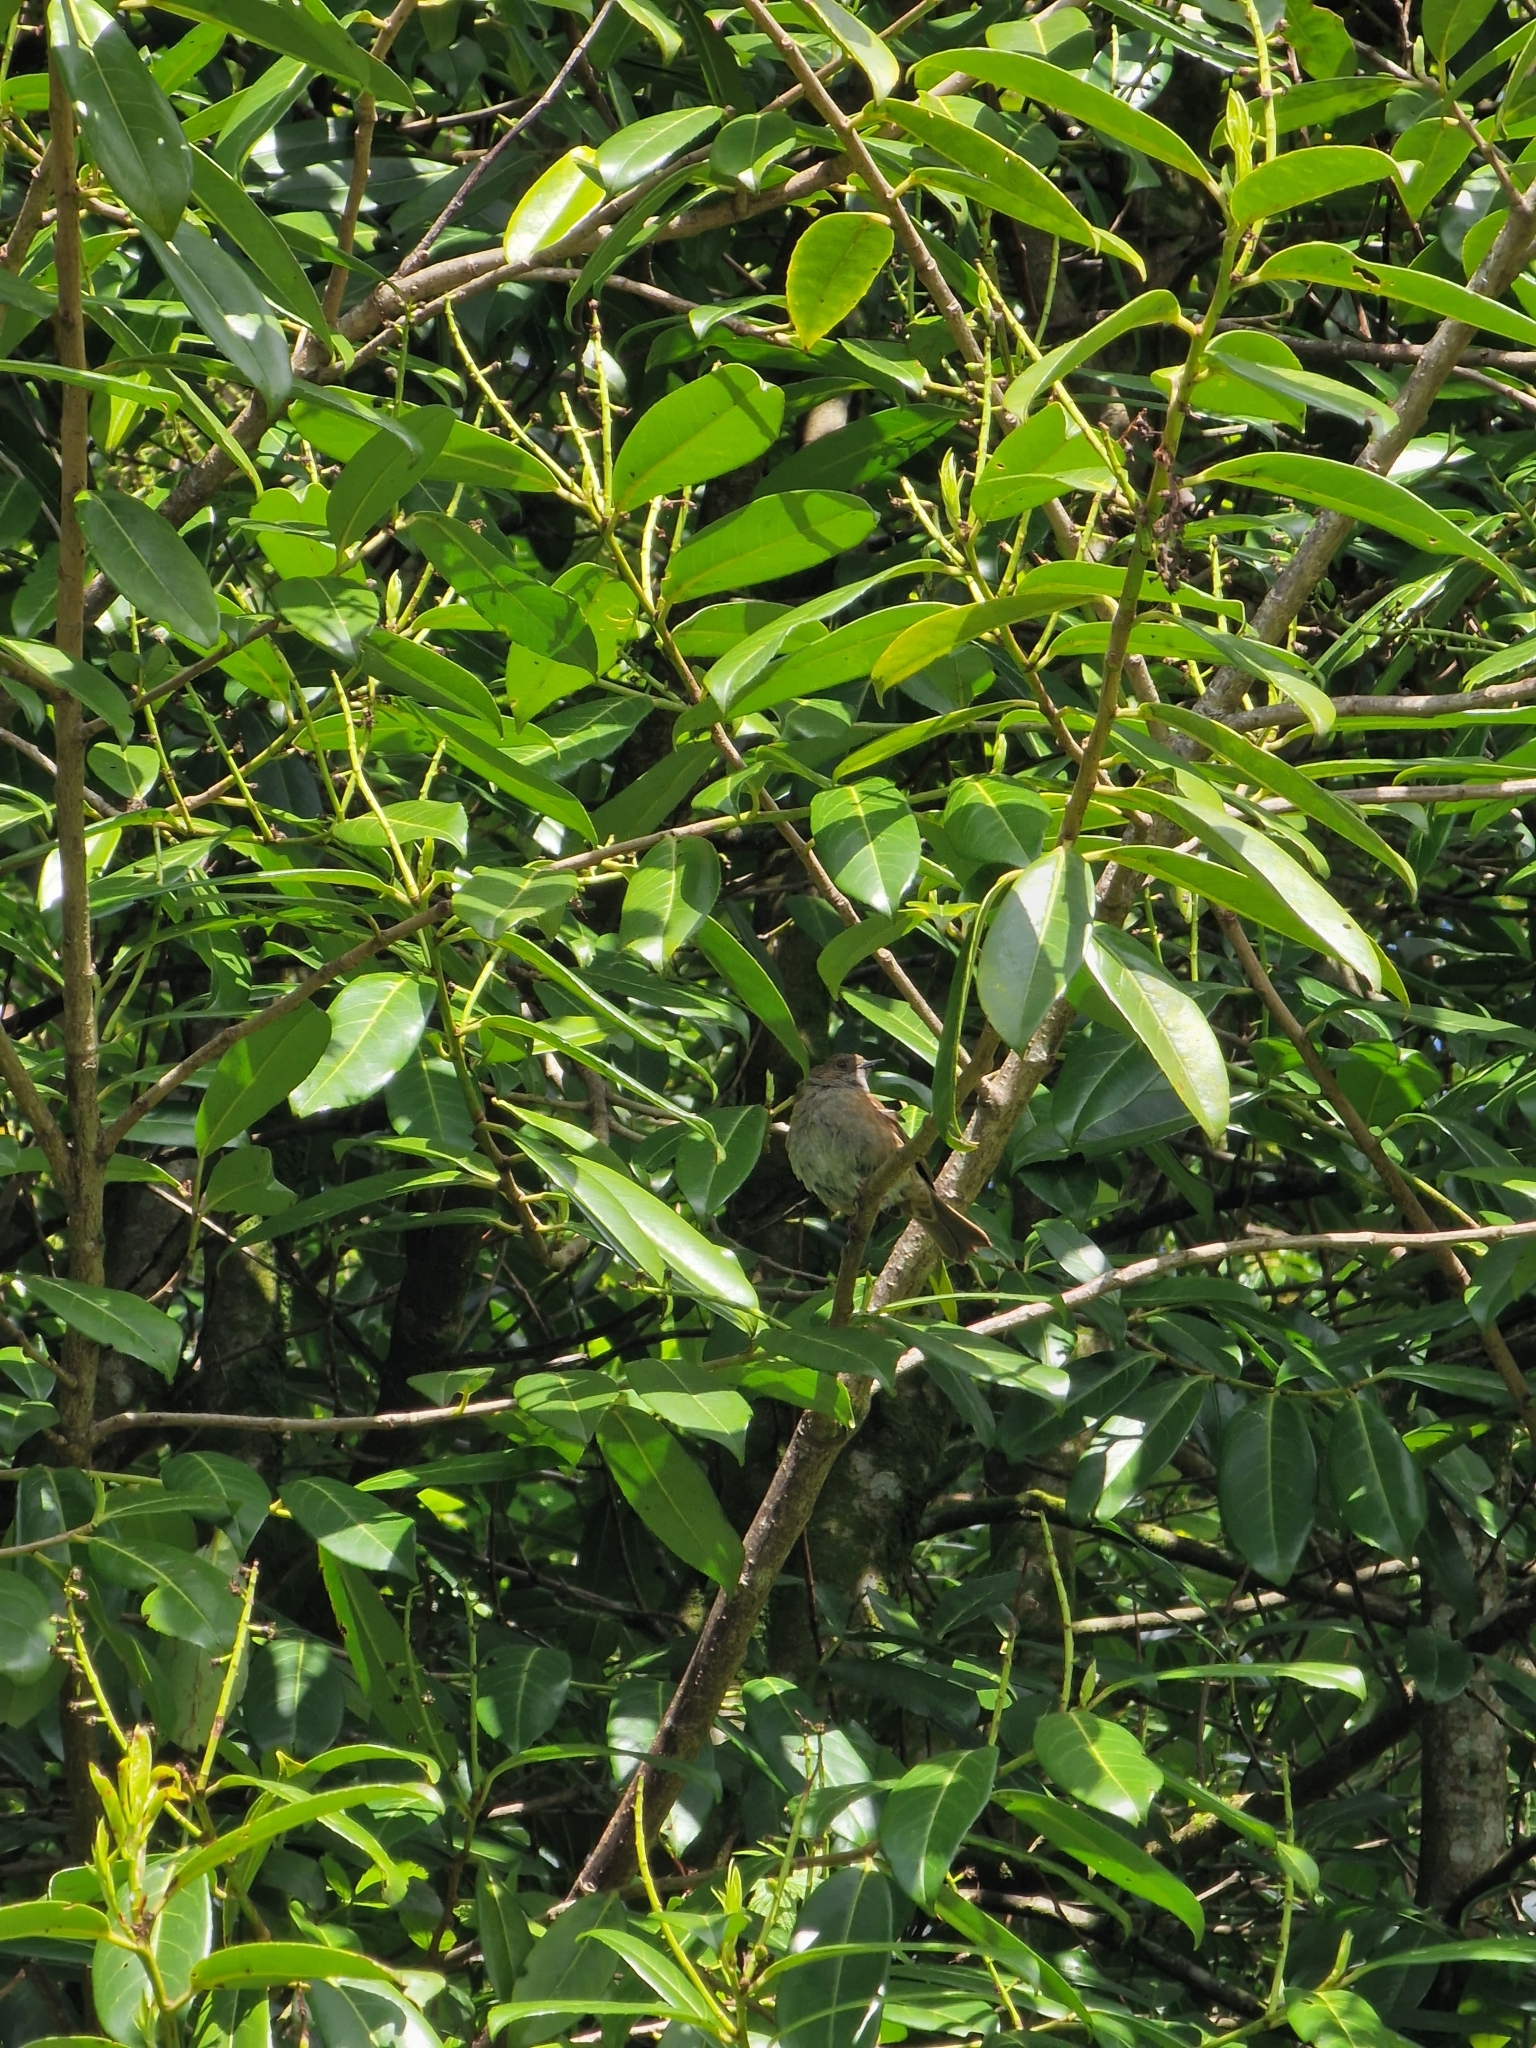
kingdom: Animalia
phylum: Chordata
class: Aves
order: Passeriformes
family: Prunellidae
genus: Prunella
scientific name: Prunella modularis
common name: Dunnock
